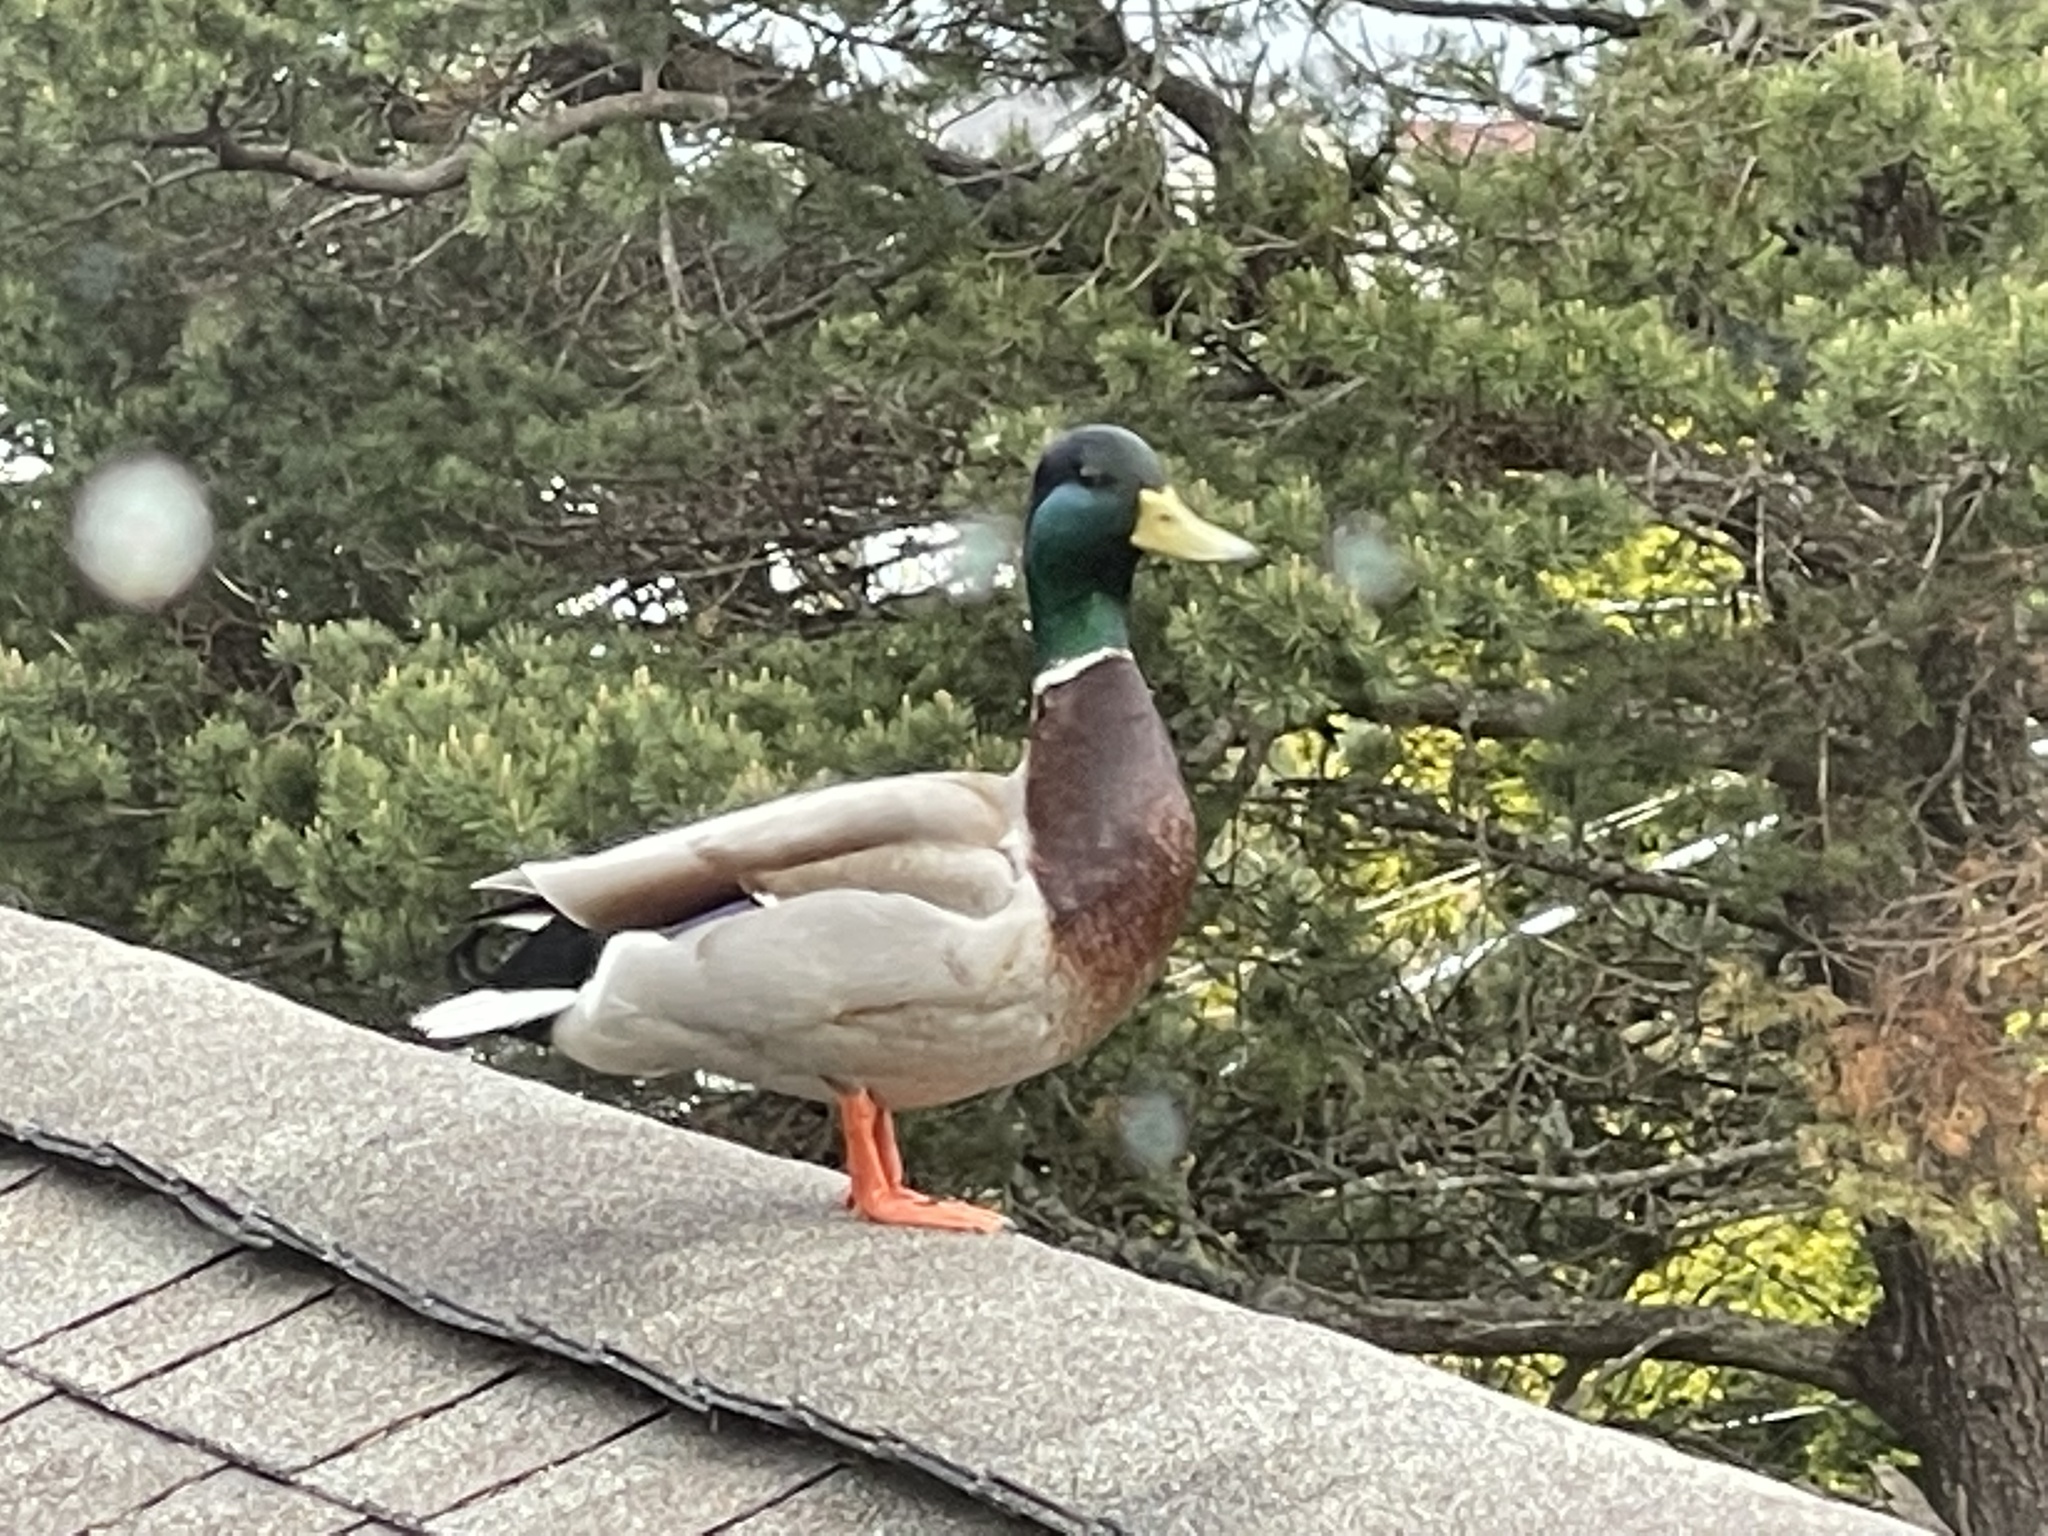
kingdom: Animalia
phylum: Chordata
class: Aves
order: Anseriformes
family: Anatidae
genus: Anas
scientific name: Anas platyrhynchos
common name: Mallard
